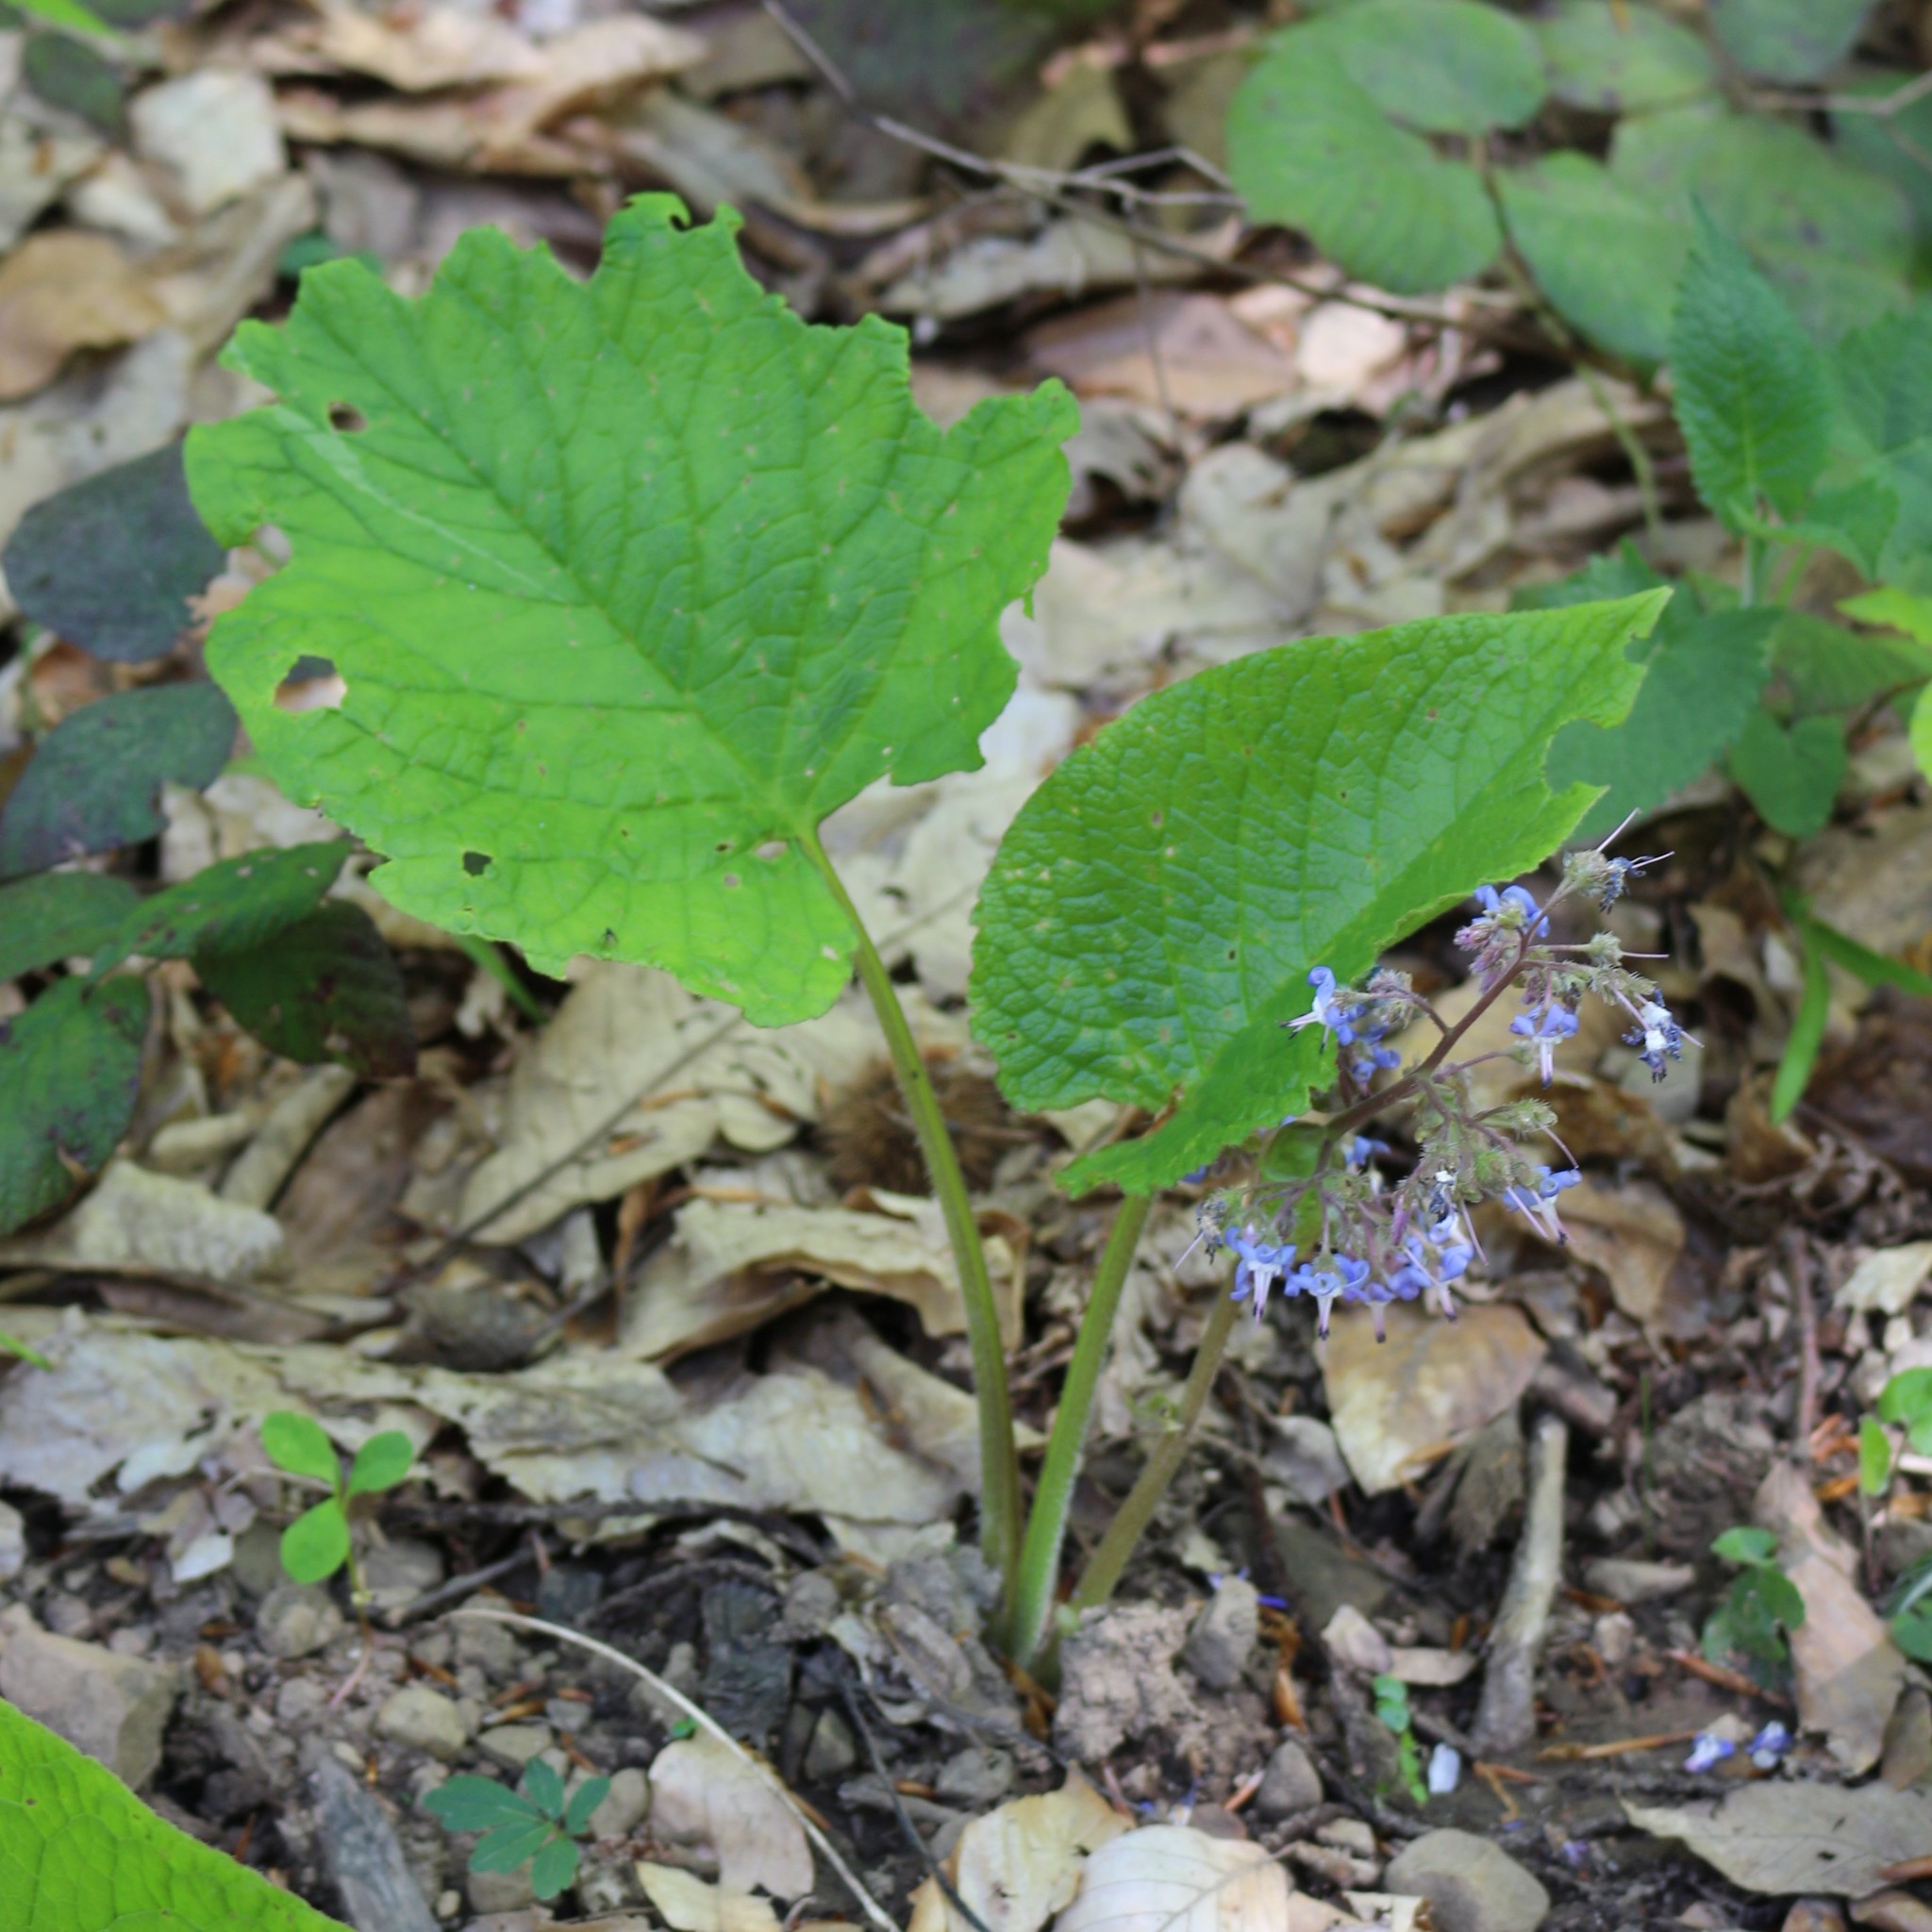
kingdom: Plantae
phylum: Tracheophyta
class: Magnoliopsida
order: Boraginales
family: Boraginaceae
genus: Trachystemon
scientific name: Trachystemon orientale
